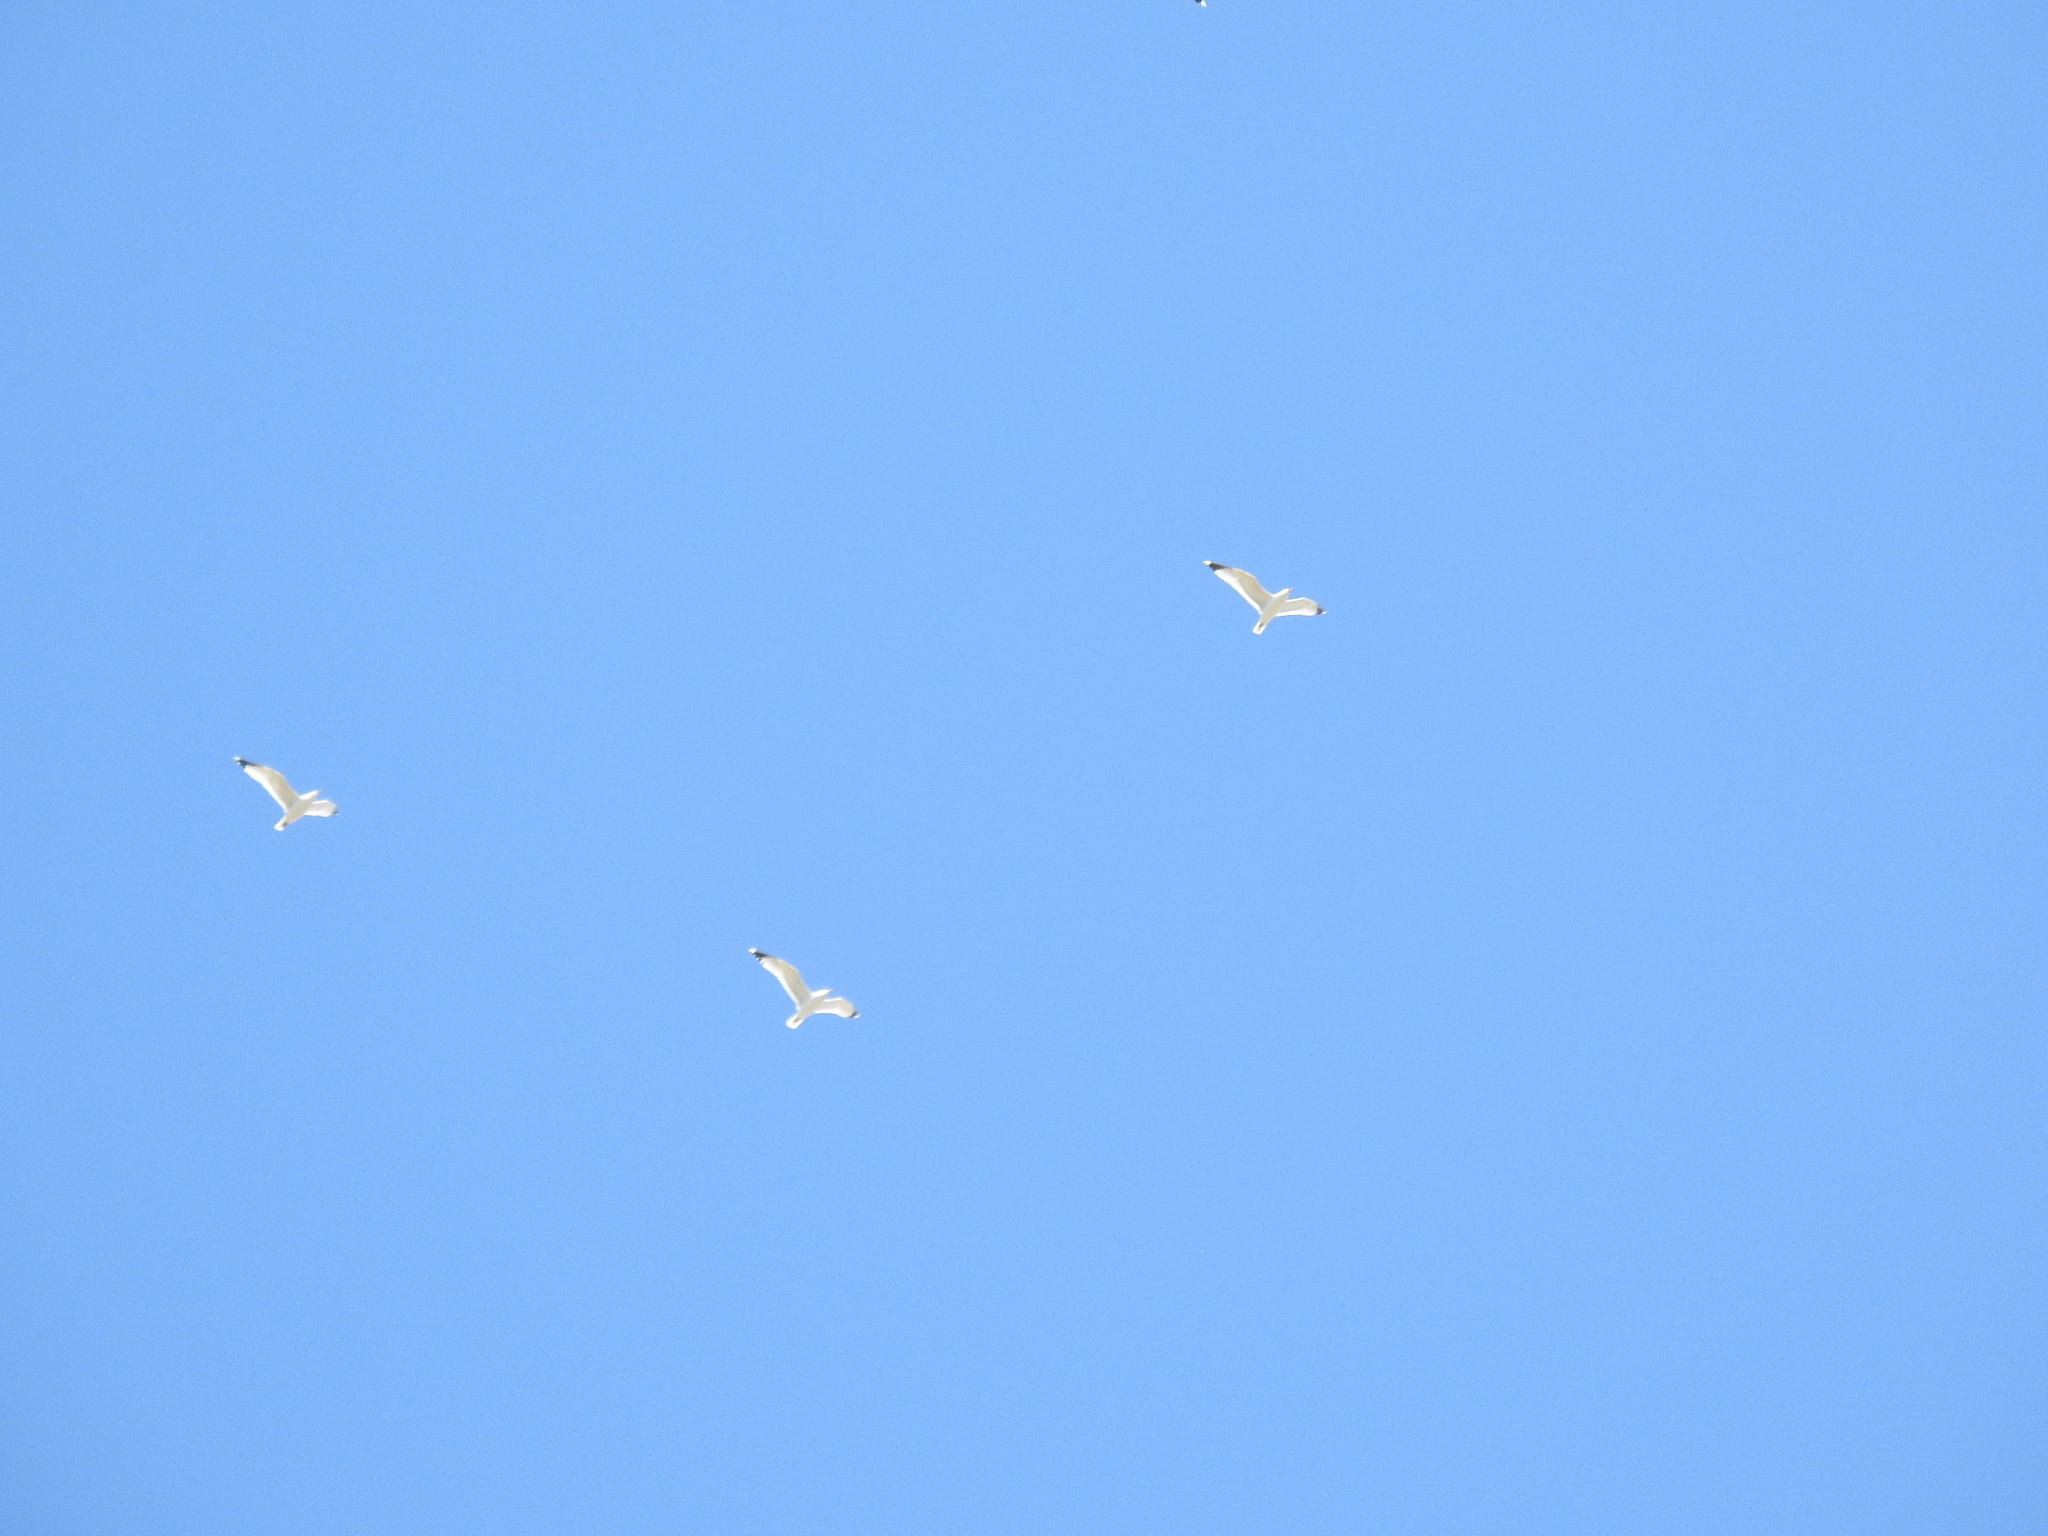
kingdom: Animalia
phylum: Chordata
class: Aves
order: Charadriiformes
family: Laridae
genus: Larus
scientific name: Larus delawarensis
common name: Ring-billed gull
